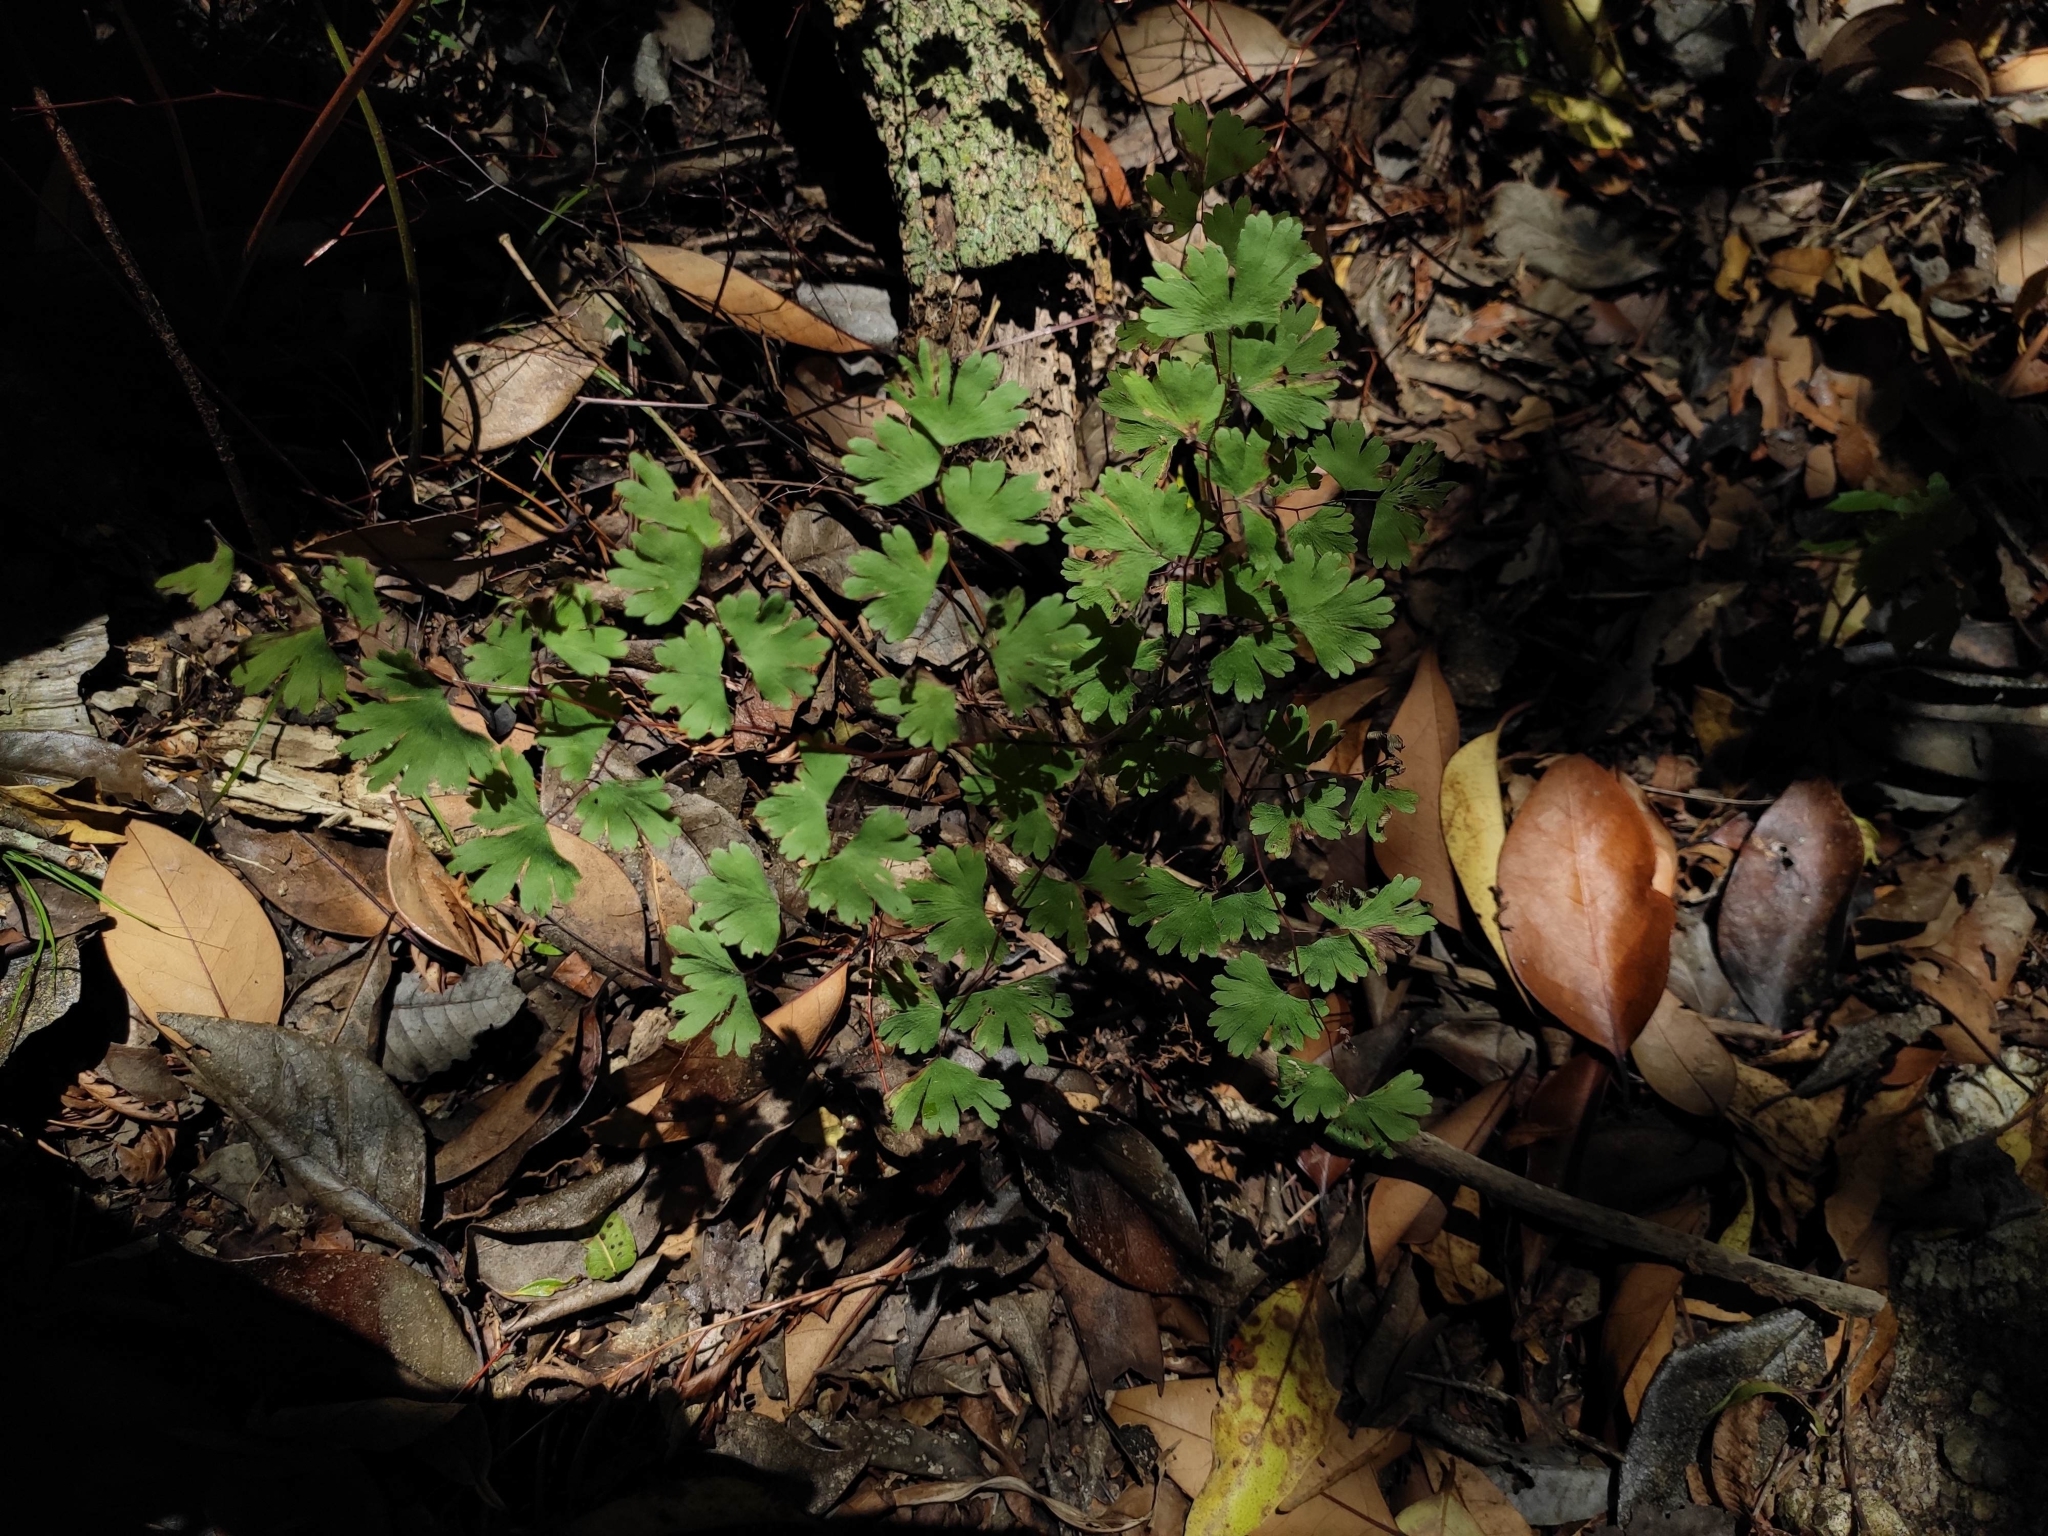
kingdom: Plantae
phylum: Tracheophyta
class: Polypodiopsida
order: Polypodiales
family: Pteridaceae
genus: Adiantum
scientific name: Adiantum digitatum
